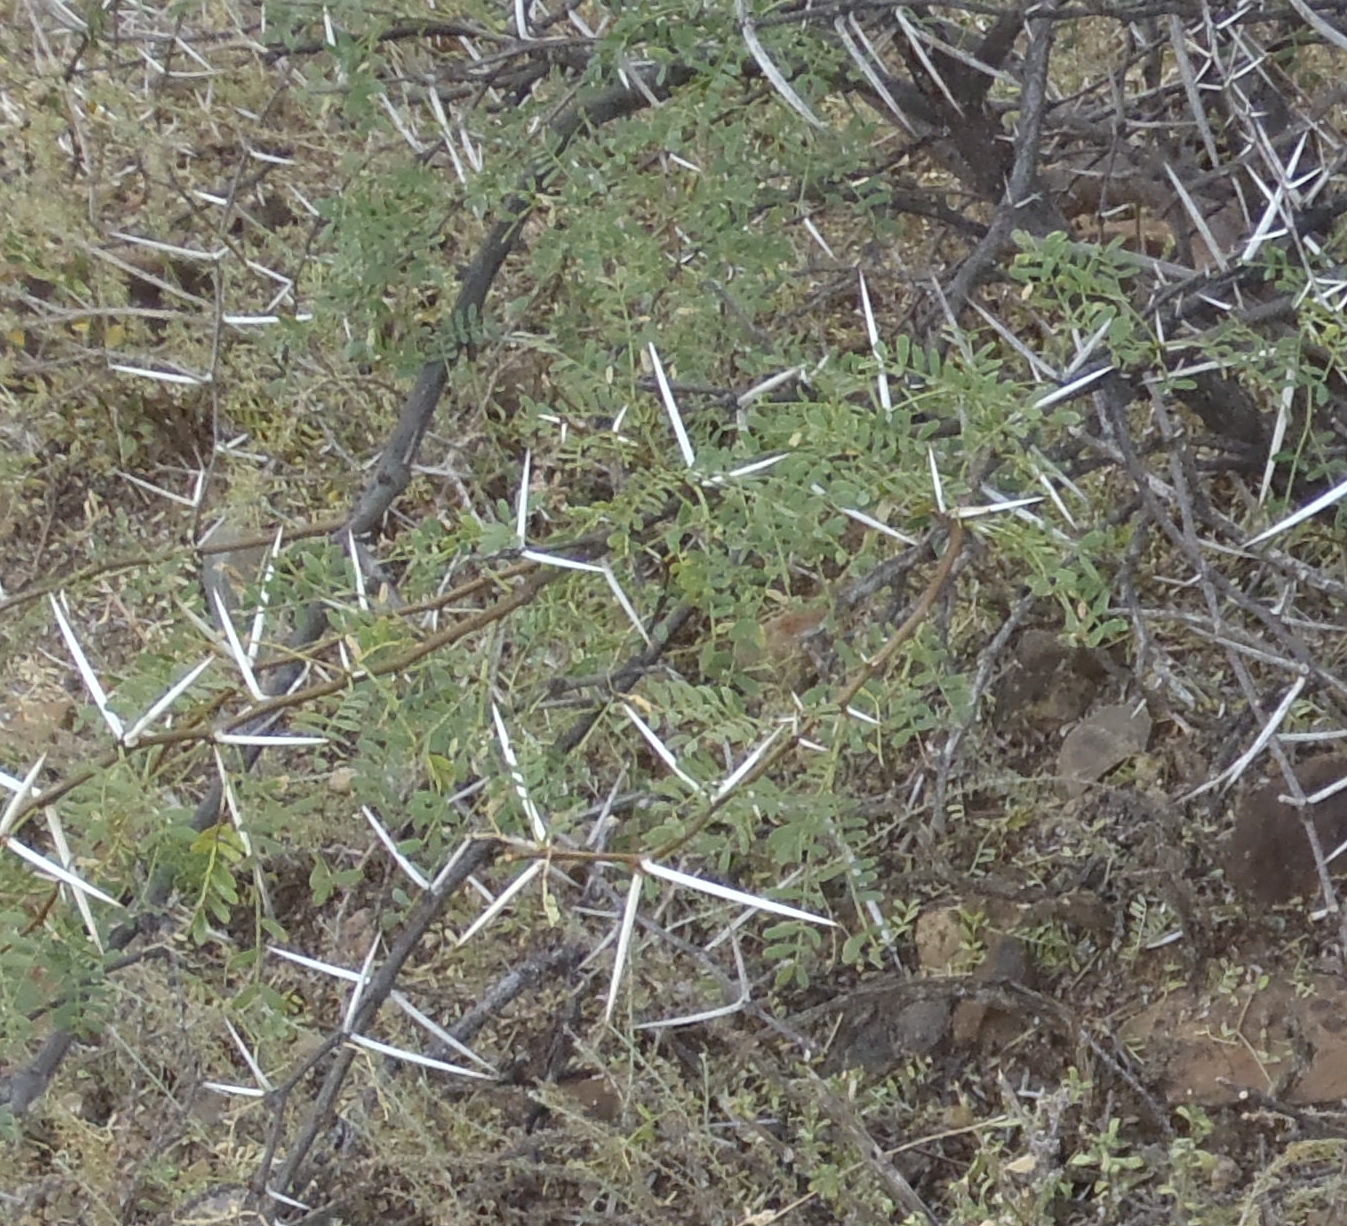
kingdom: Plantae
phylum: Tracheophyta
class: Magnoliopsida
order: Fabales
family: Fabaceae
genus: Vachellia
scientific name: Vachellia karroo
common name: Sweet thorn
